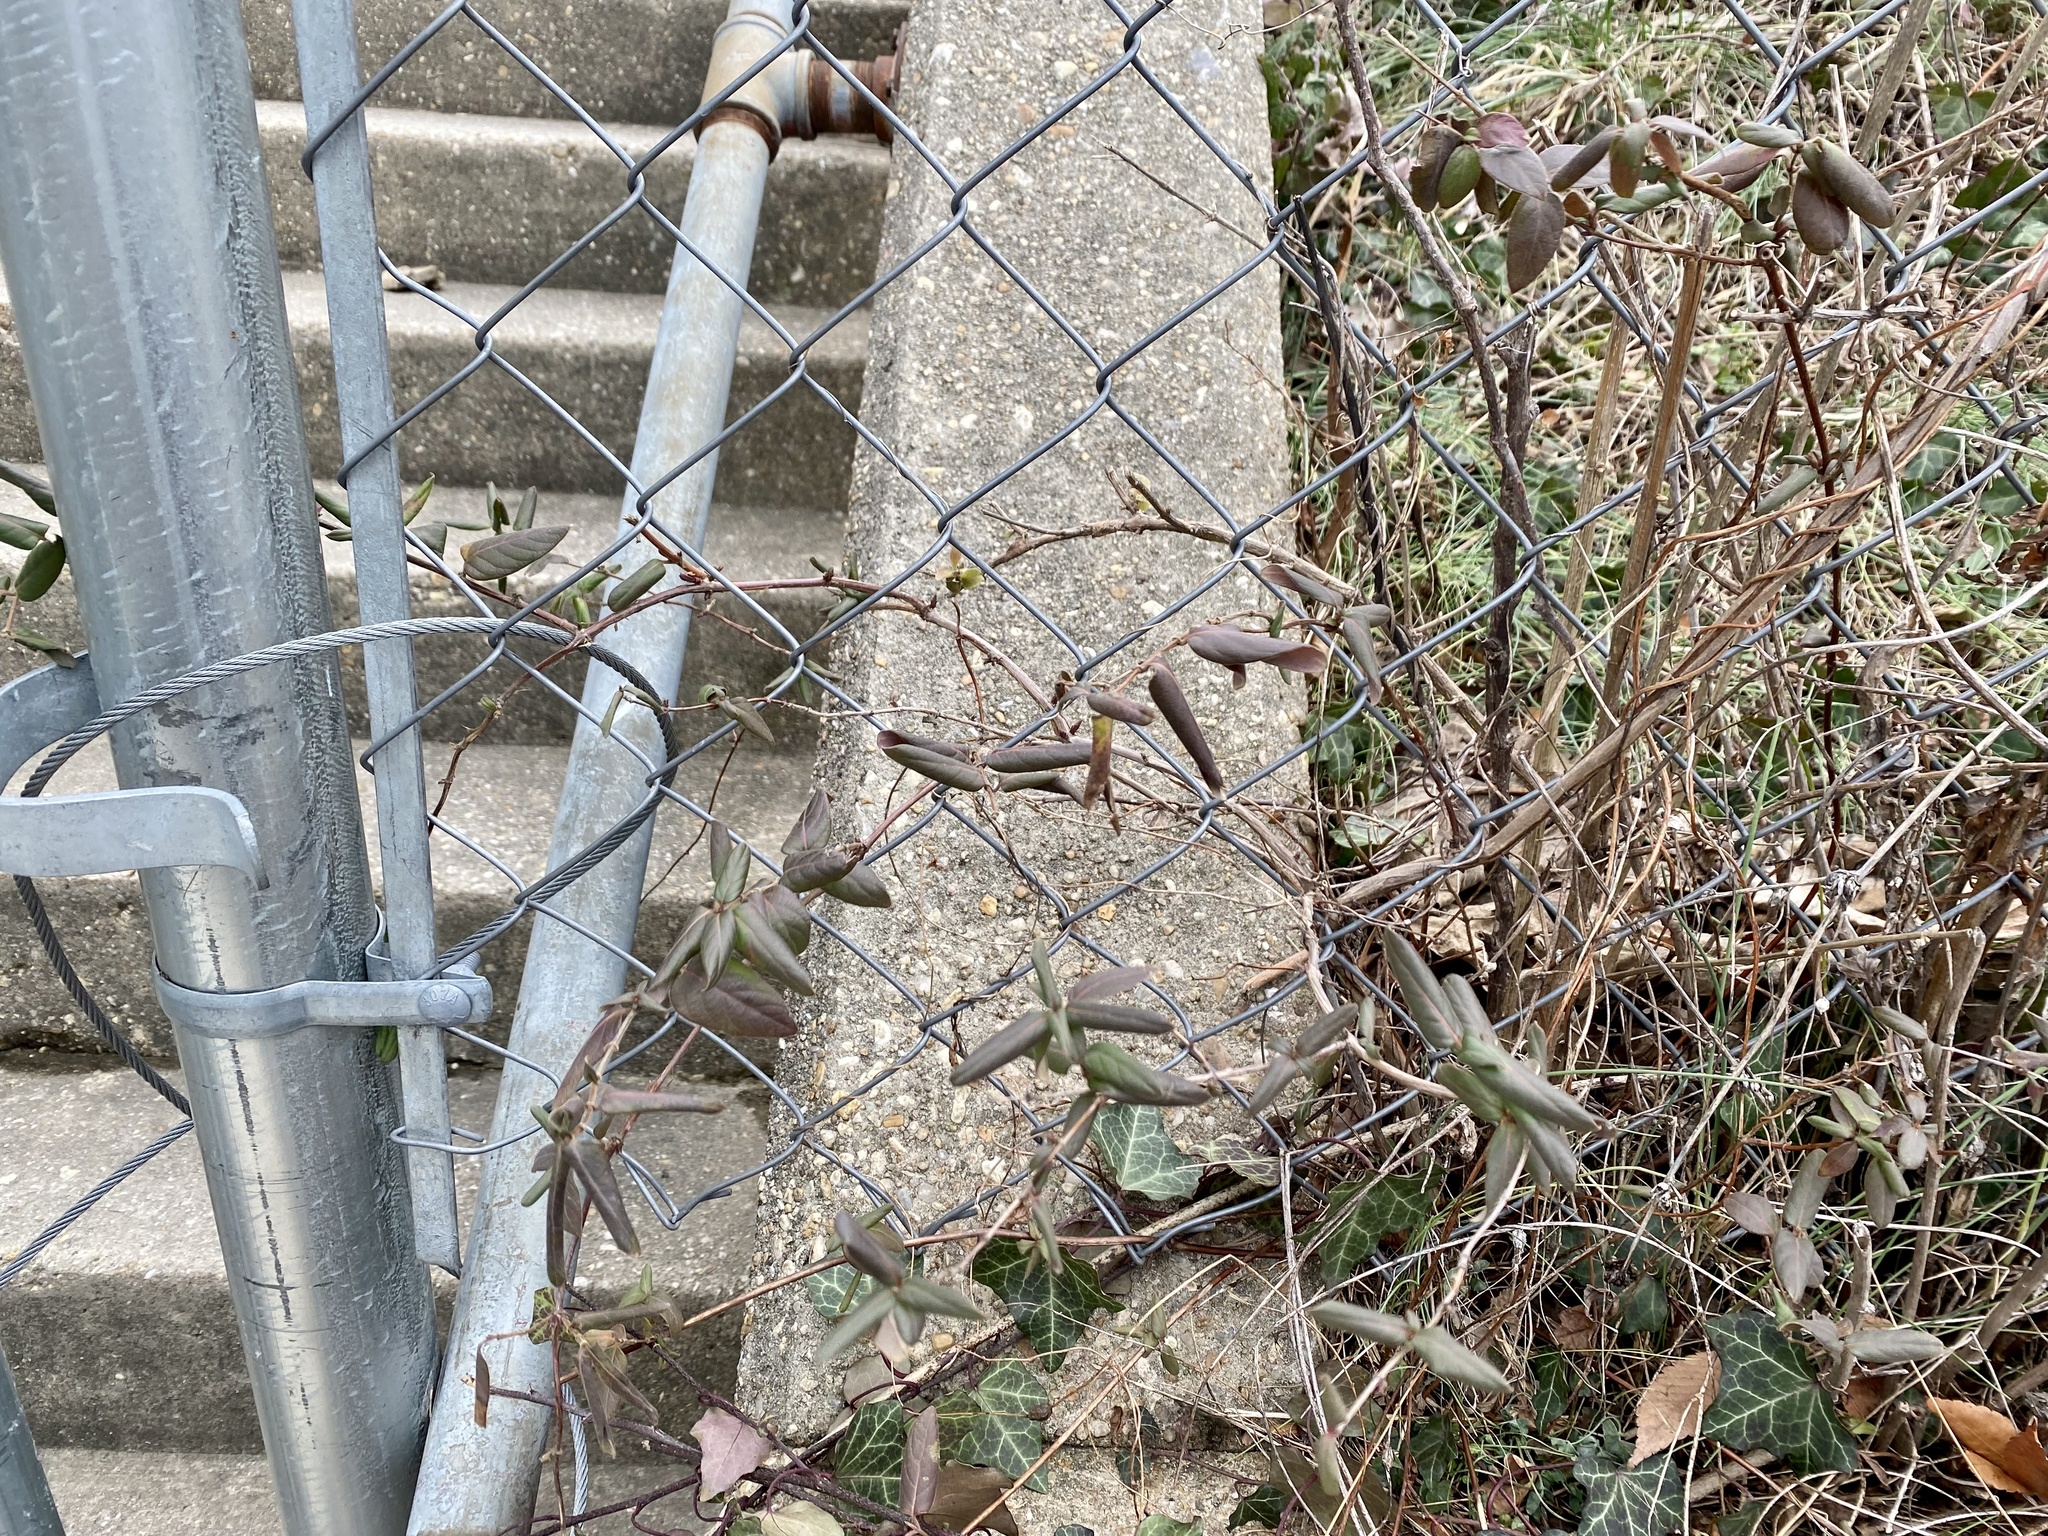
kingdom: Plantae
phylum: Tracheophyta
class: Magnoliopsida
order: Dipsacales
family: Caprifoliaceae
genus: Lonicera
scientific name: Lonicera japonica
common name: Japanese honeysuckle
